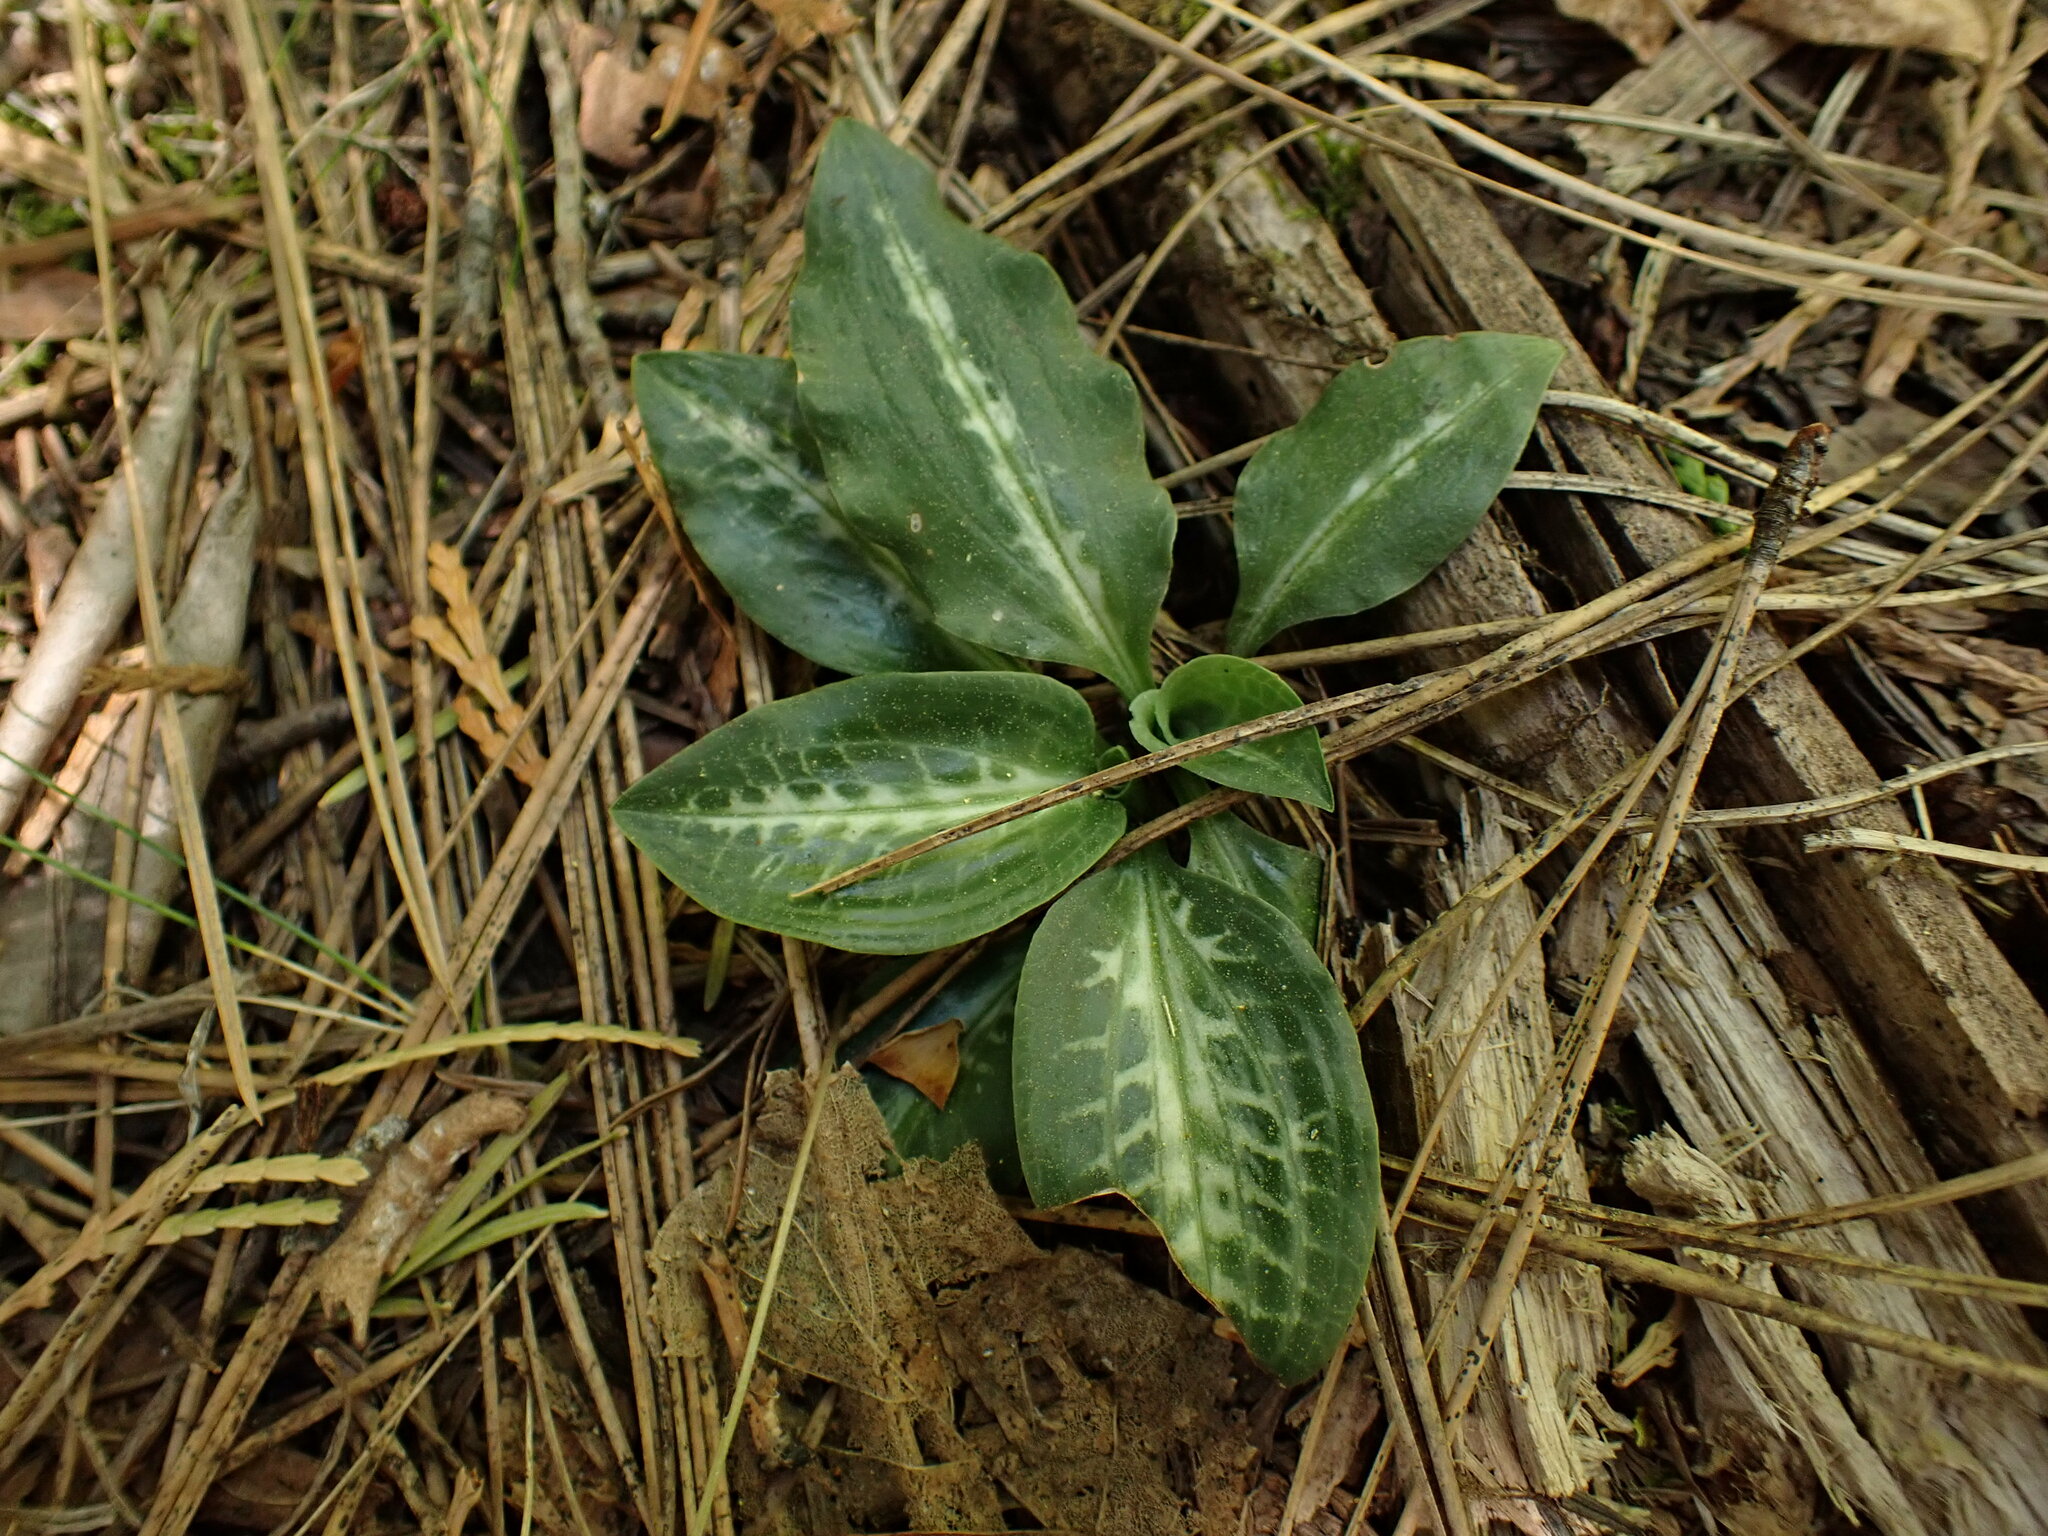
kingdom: Plantae
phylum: Tracheophyta
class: Liliopsida
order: Asparagales
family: Orchidaceae
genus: Goodyera
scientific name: Goodyera oblongifolia
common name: Giant rattlesnake-plantain
